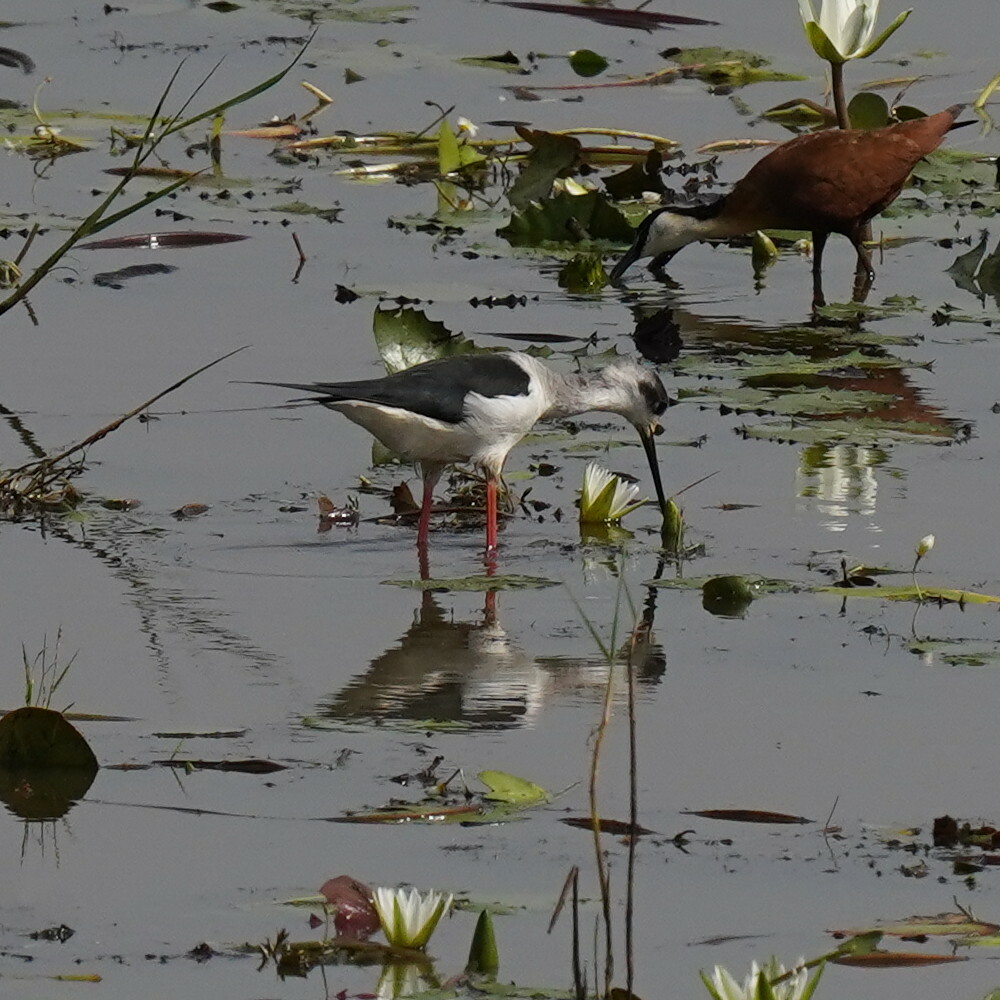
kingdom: Animalia
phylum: Chordata
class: Aves
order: Charadriiformes
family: Recurvirostridae
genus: Himantopus
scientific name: Himantopus himantopus
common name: Black-winged stilt
